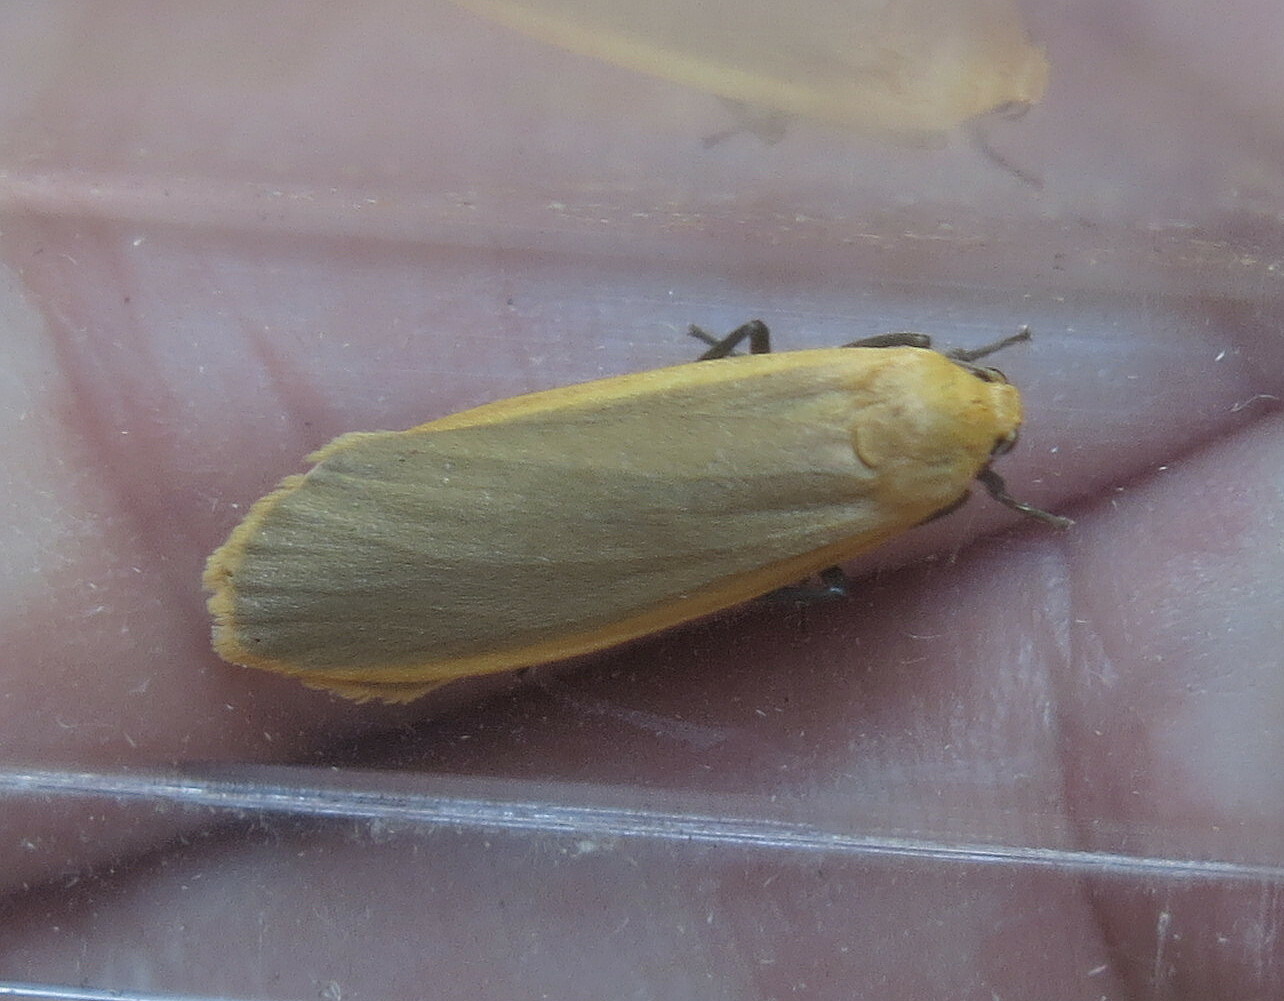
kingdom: Animalia
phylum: Arthropoda
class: Insecta
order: Lepidoptera
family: Erebidae
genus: Collita
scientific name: Collita griseola
